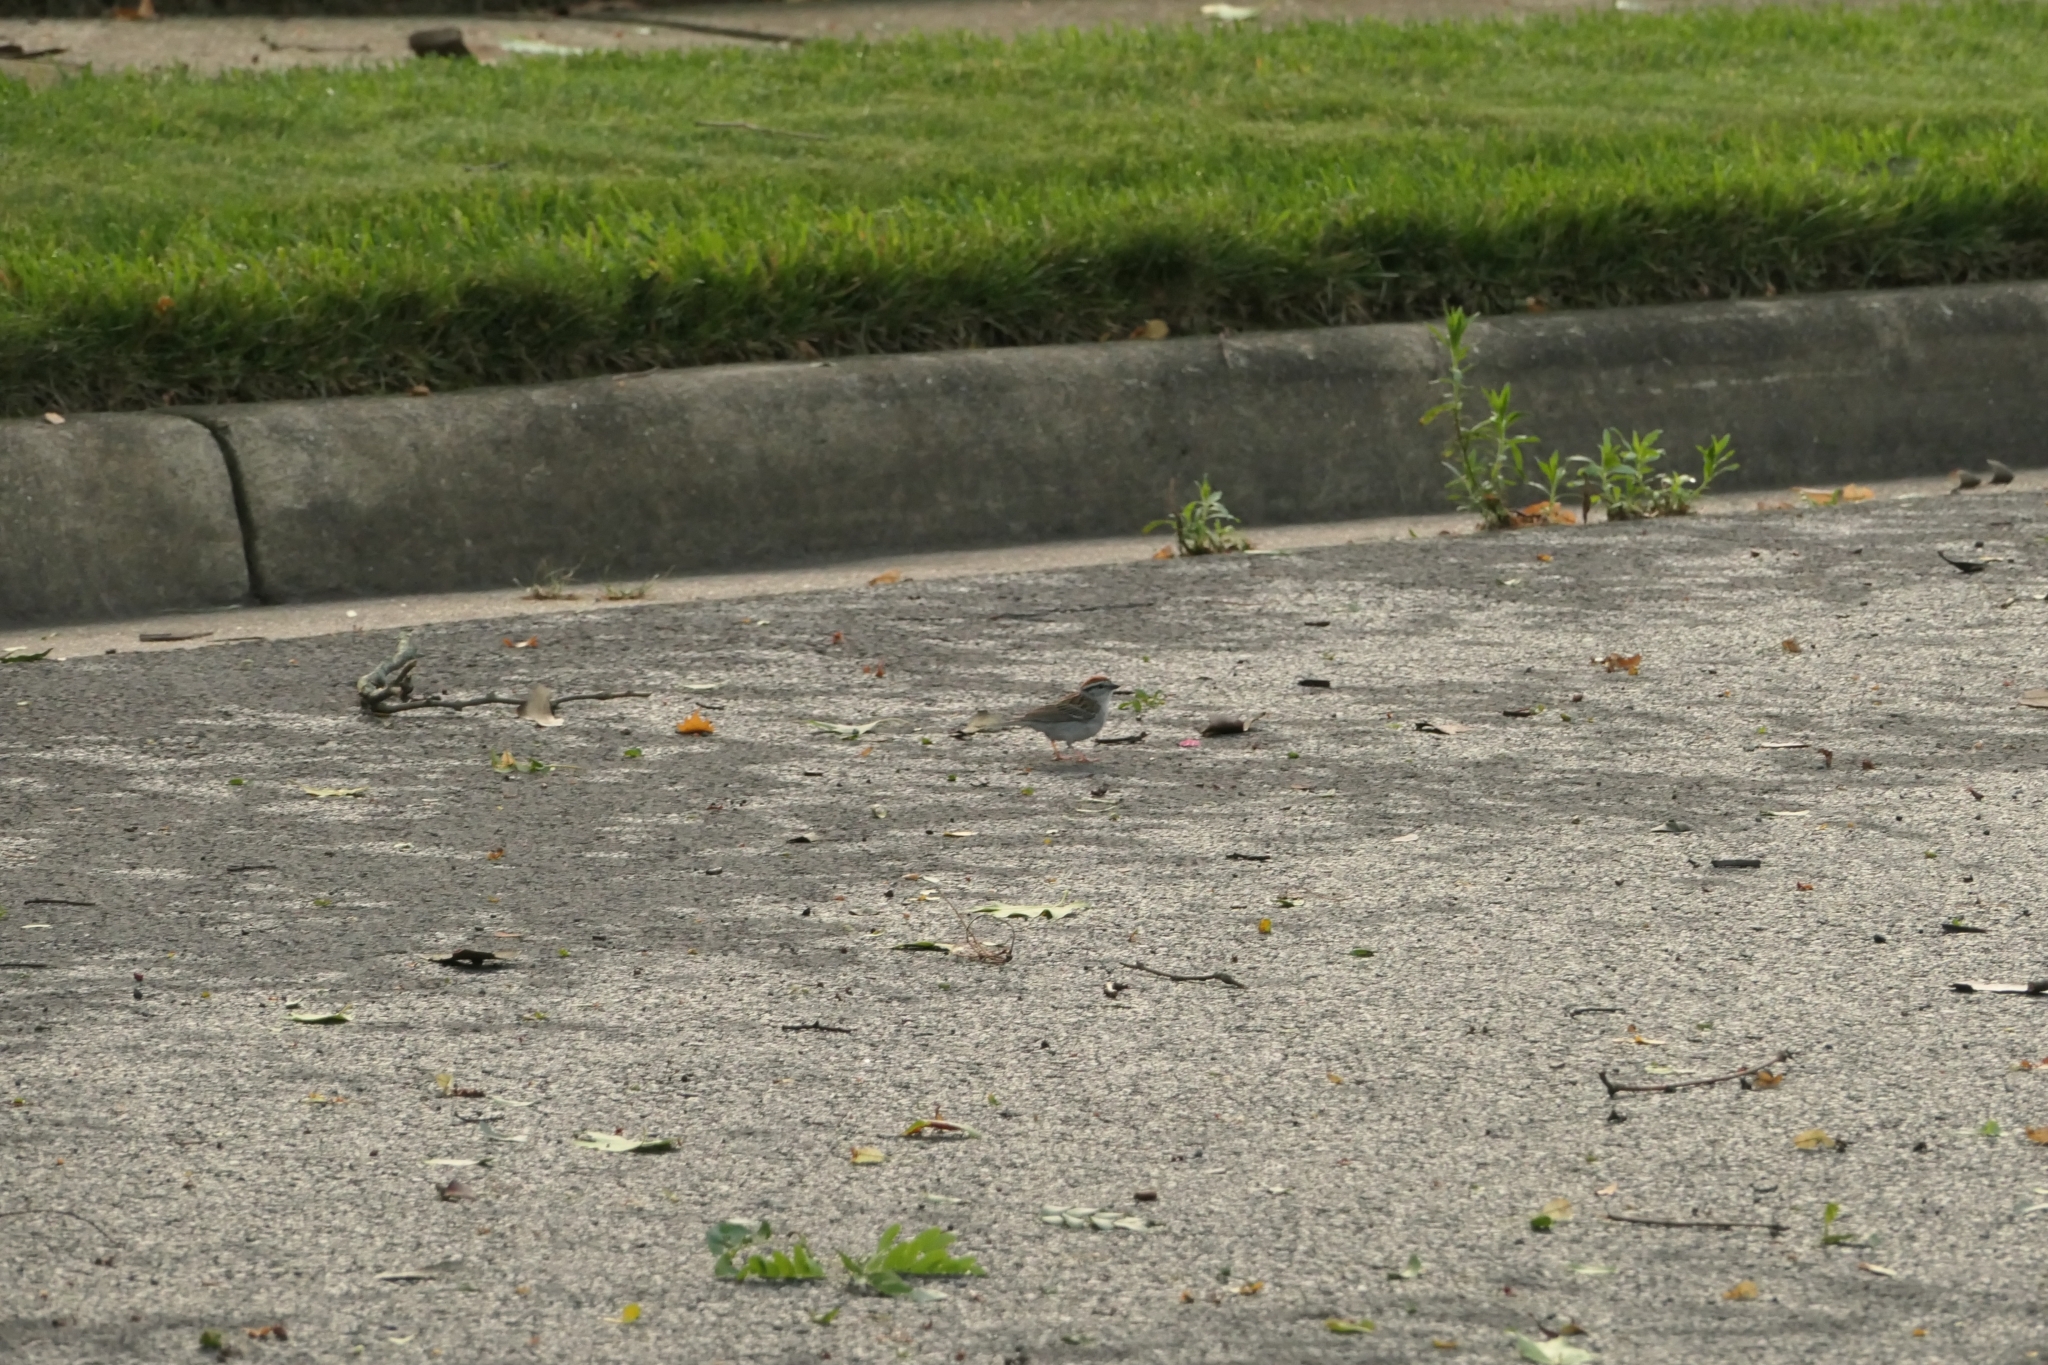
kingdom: Animalia
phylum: Chordata
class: Aves
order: Passeriformes
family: Passerellidae
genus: Spizella
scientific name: Spizella passerina
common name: Chipping sparrow
